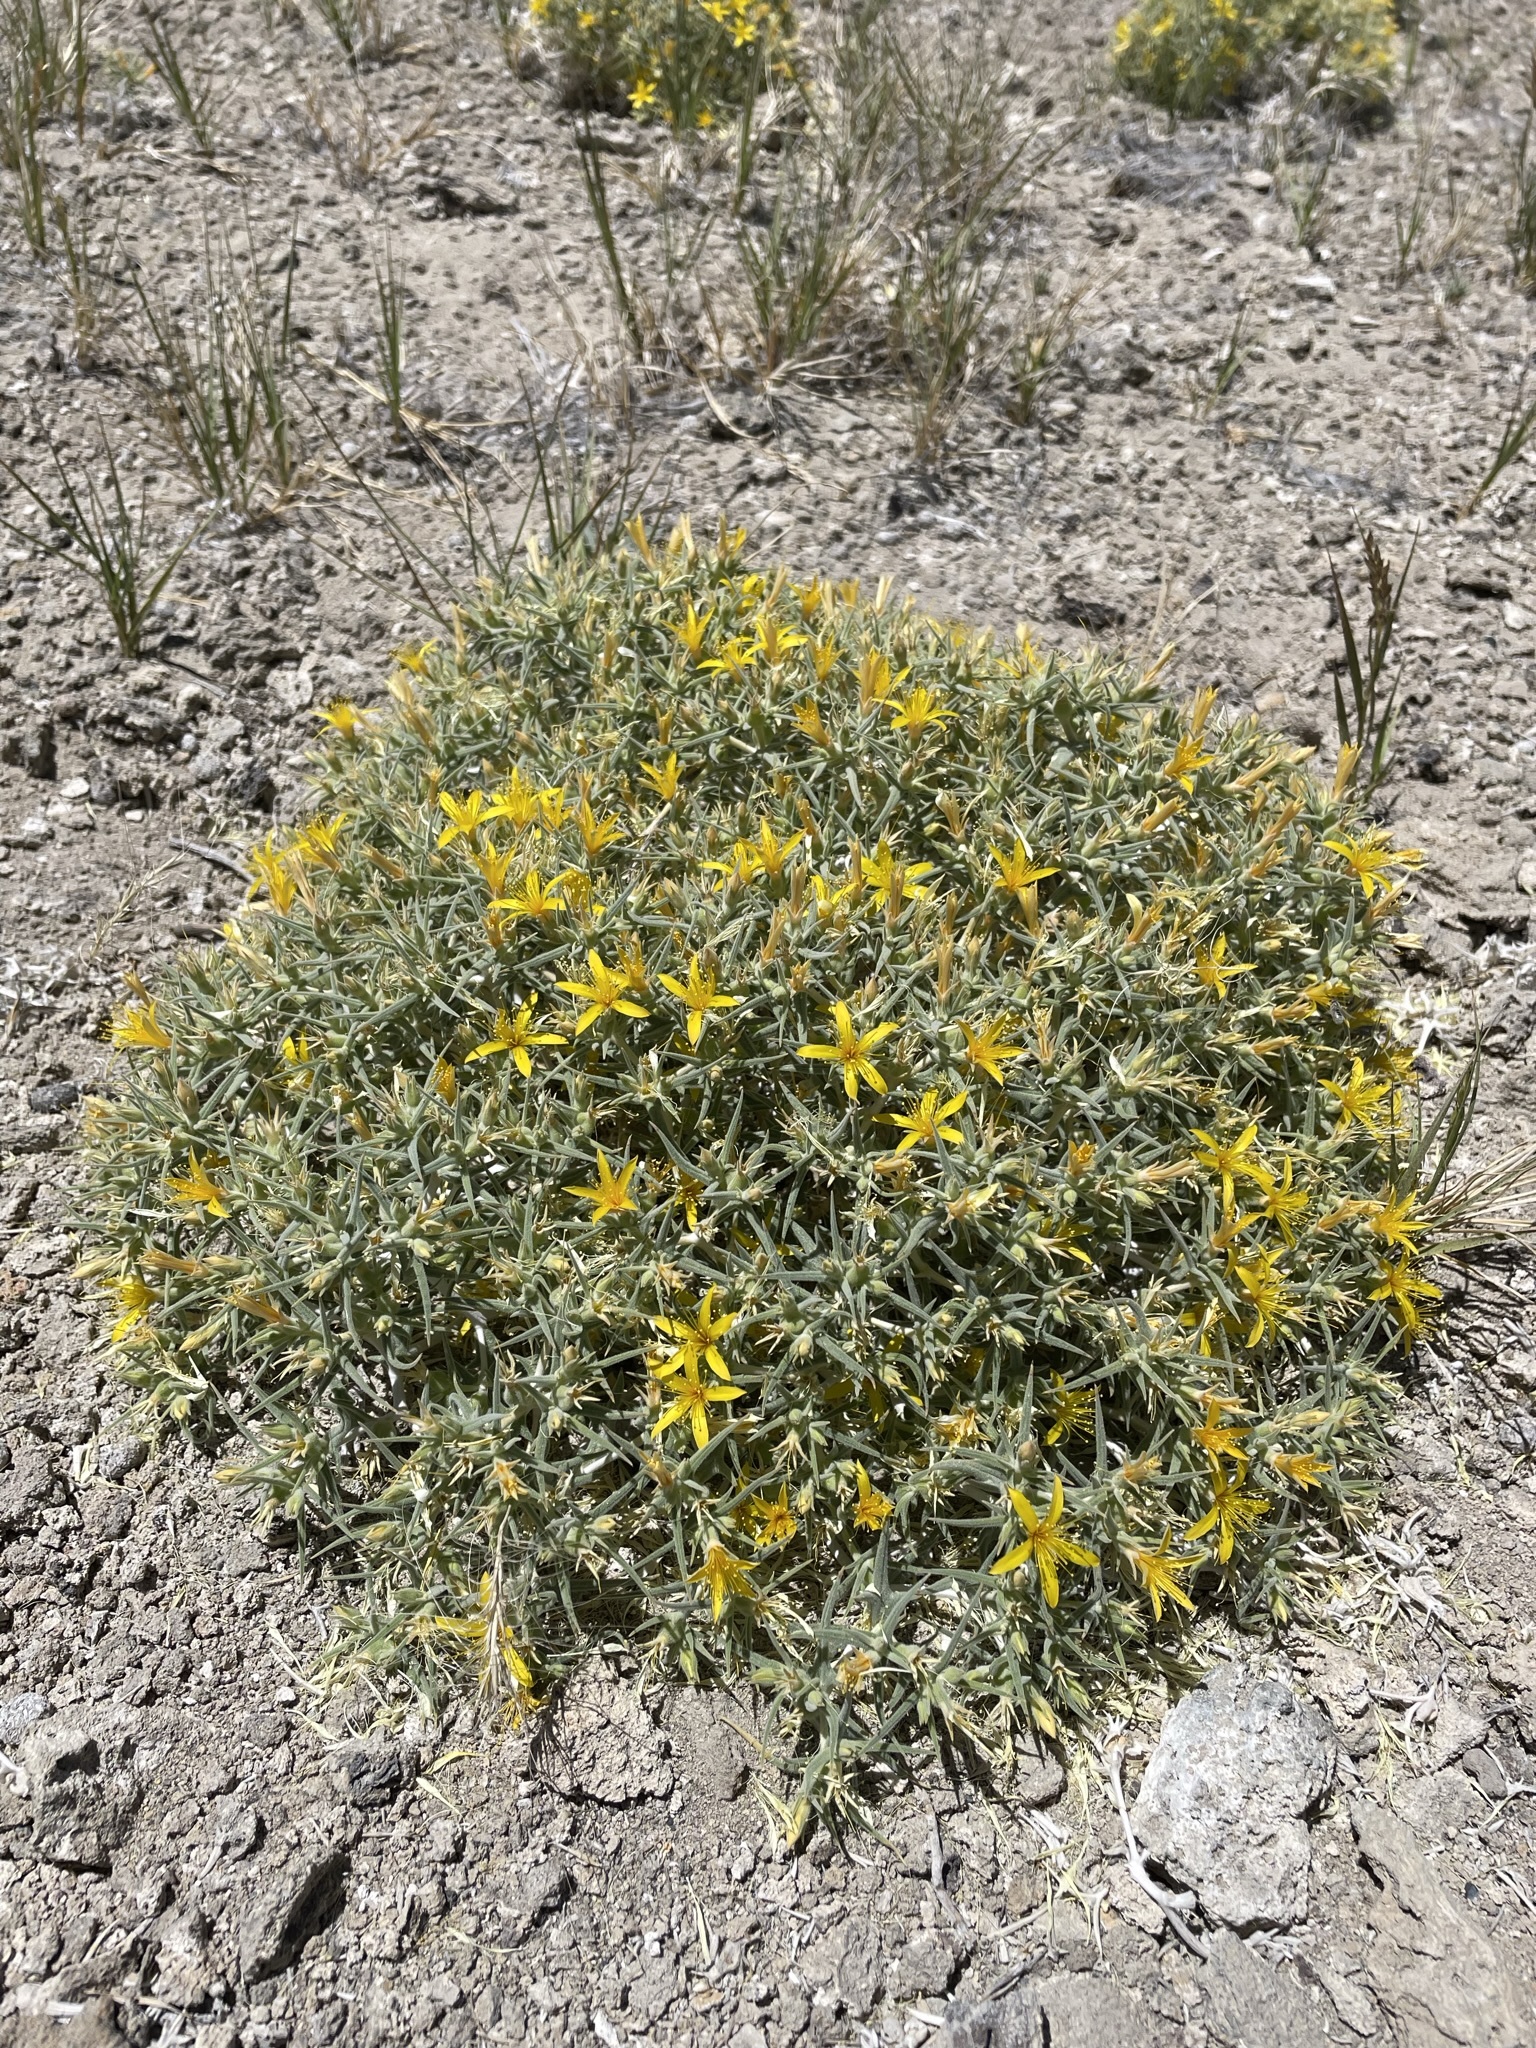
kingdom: Plantae
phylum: Tracheophyta
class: Magnoliopsida
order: Cornales
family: Loasaceae
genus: Mentzelia
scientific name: Mentzelia torreyi
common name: Torrey's blazingstar
